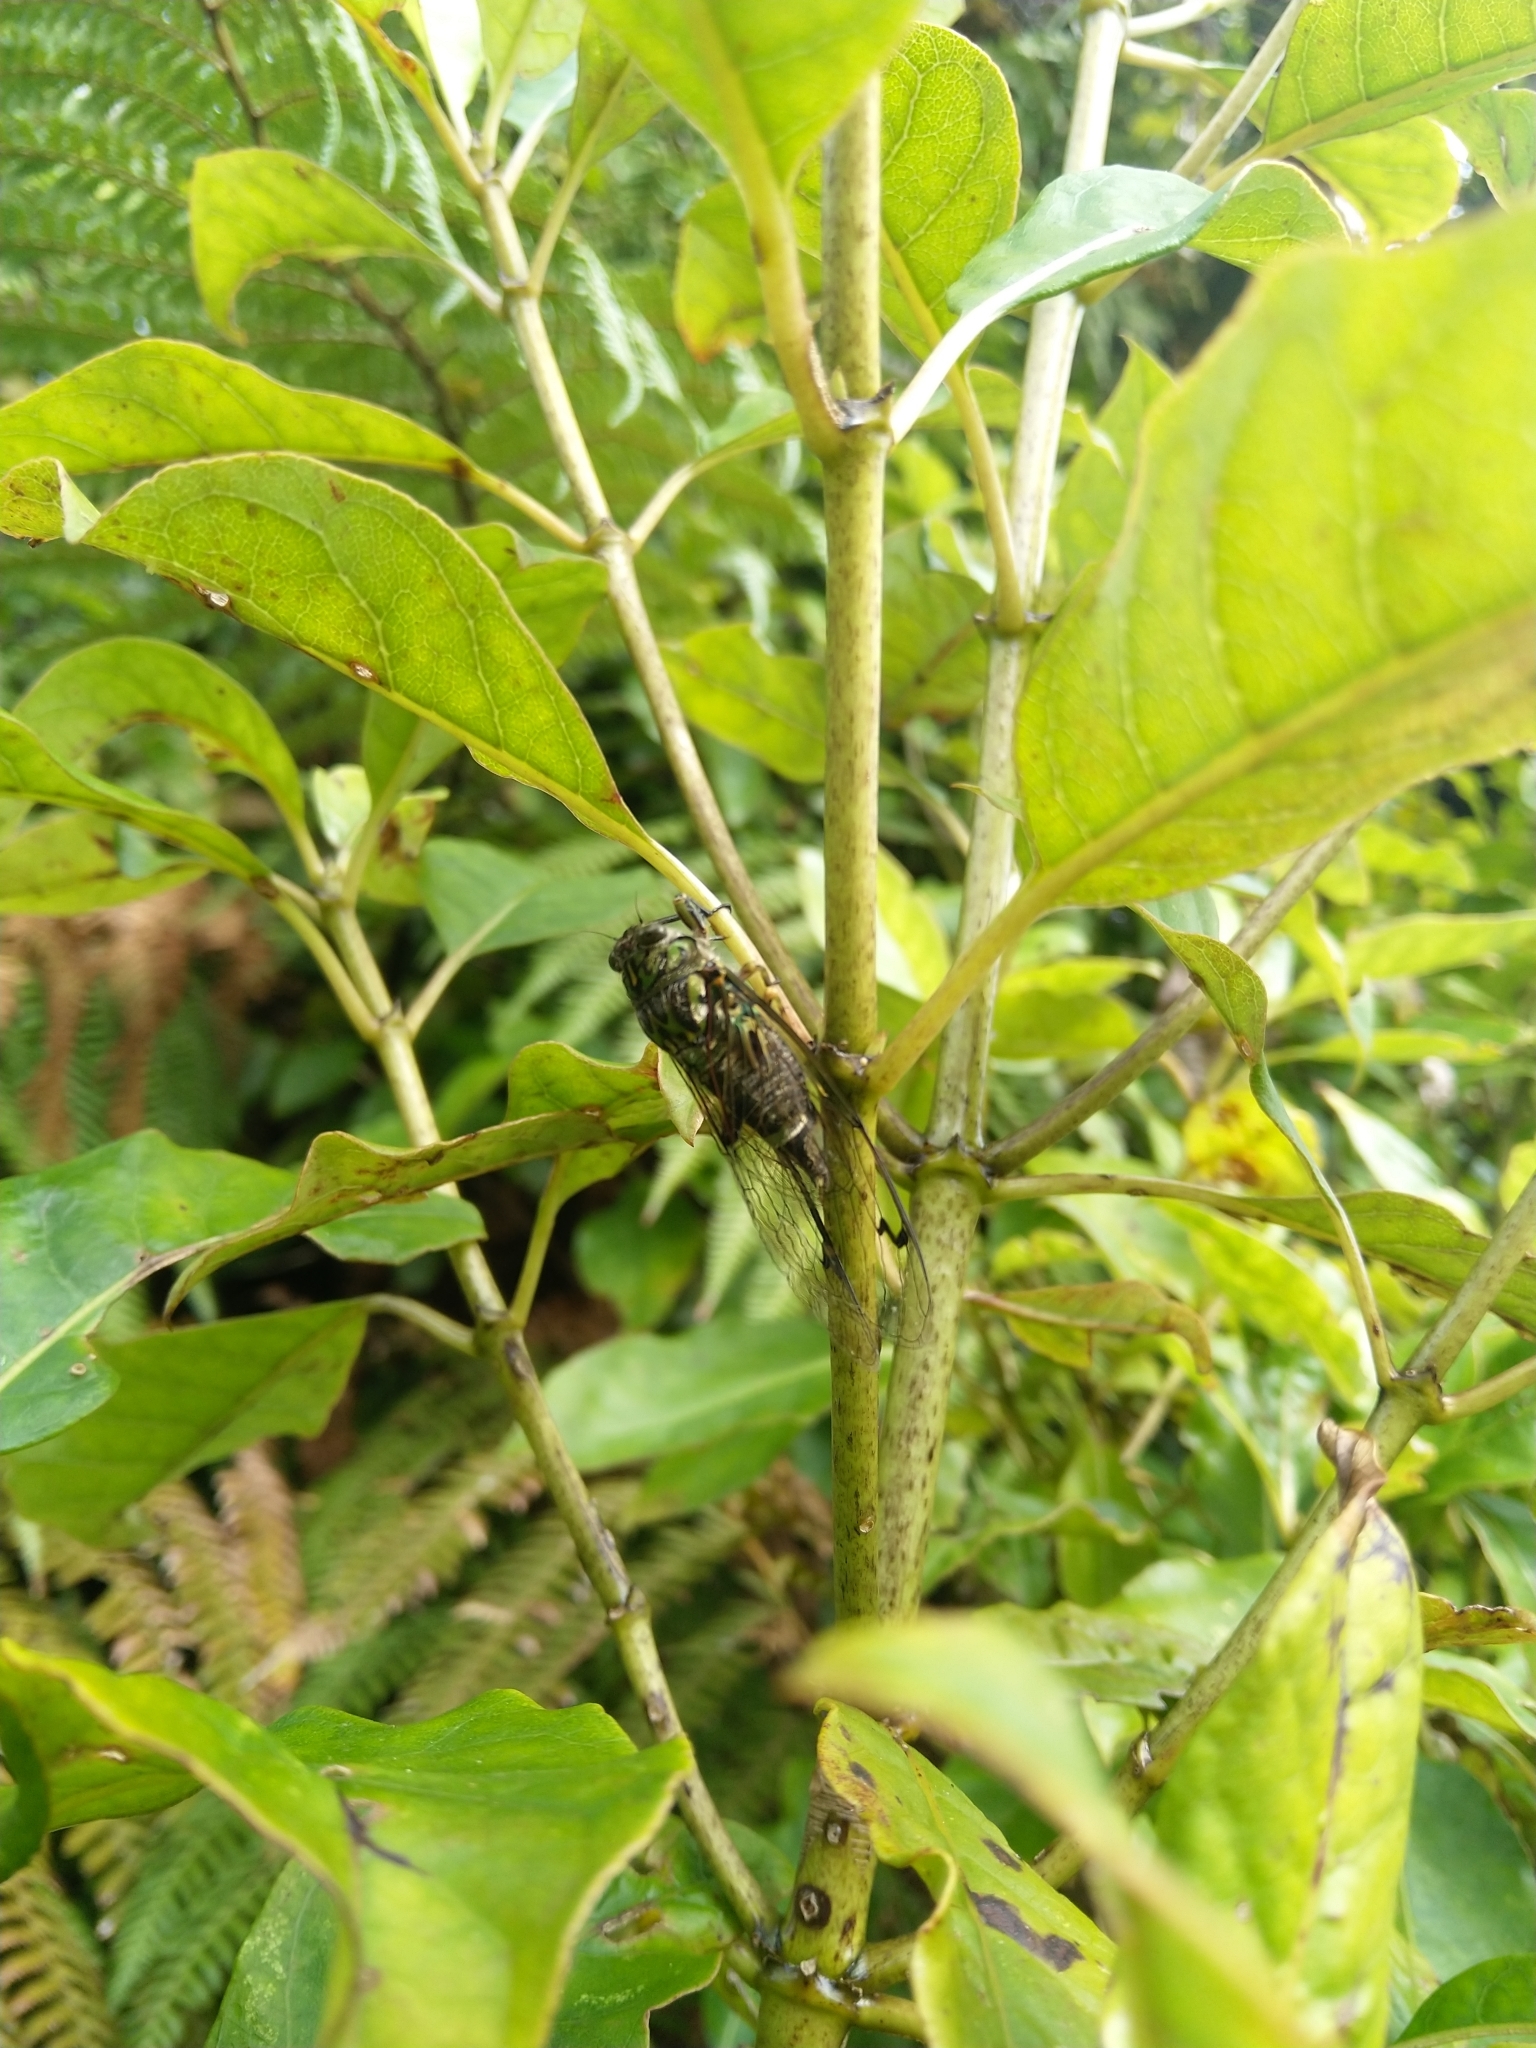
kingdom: Animalia
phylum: Arthropoda
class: Insecta
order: Hemiptera
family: Cicadidae
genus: Amphipsalta
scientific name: Amphipsalta zelandica
